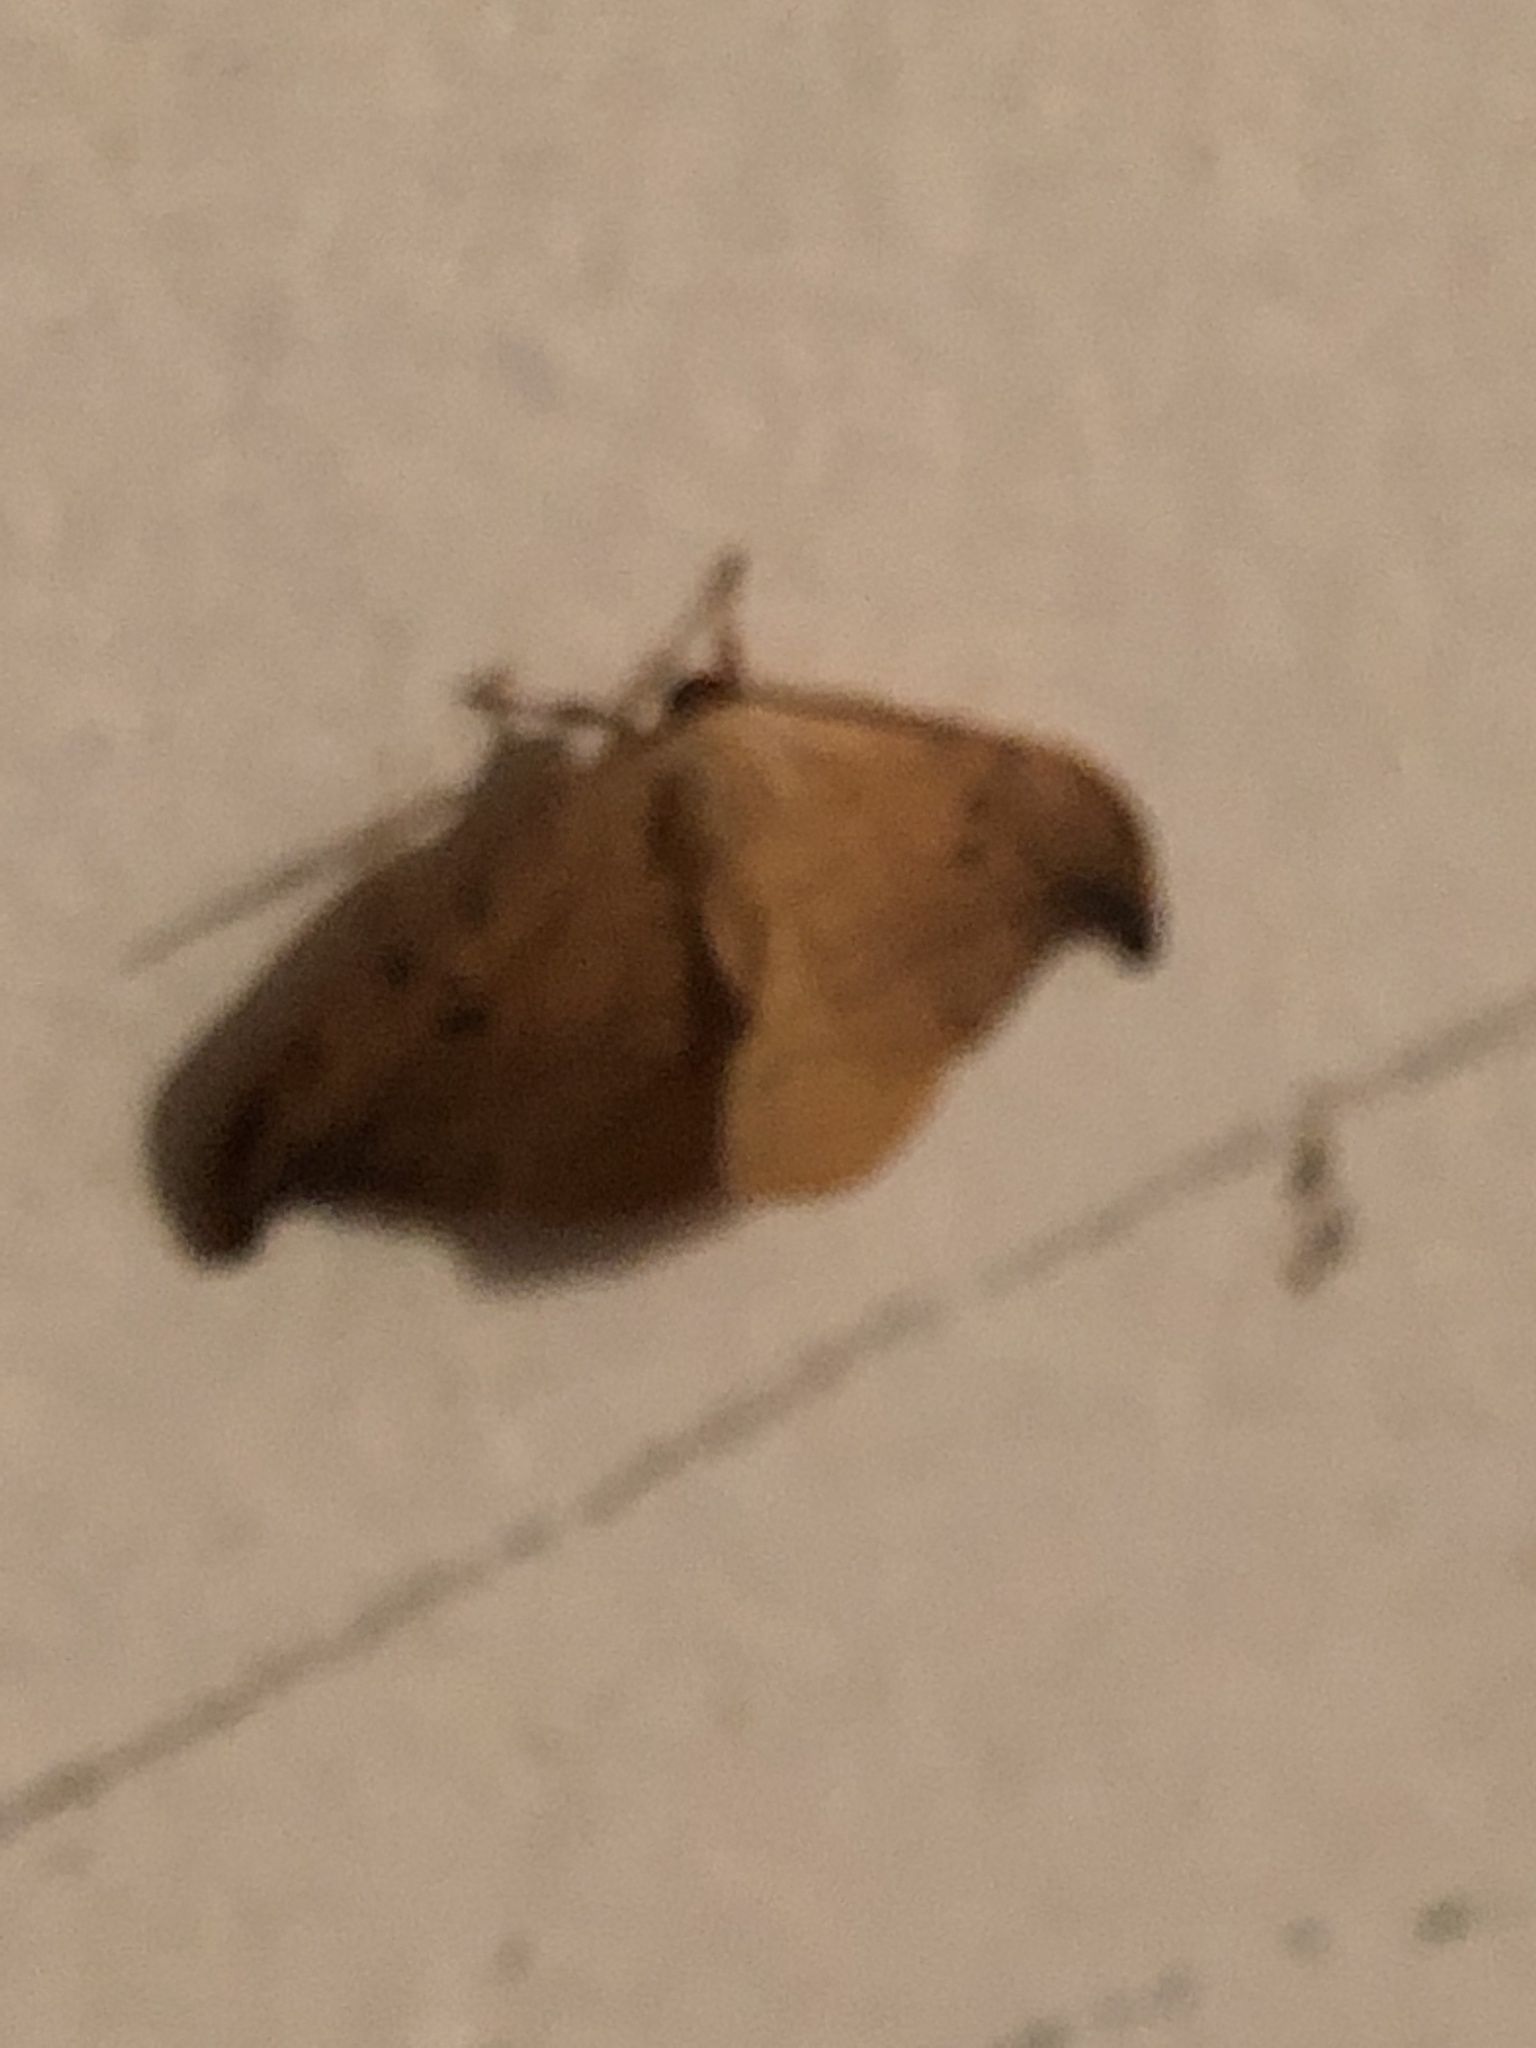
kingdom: Animalia
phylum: Arthropoda
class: Insecta
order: Lepidoptera
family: Drepanidae
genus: Drepana
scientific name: Drepana arcuata
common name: Arched hooktip moth
